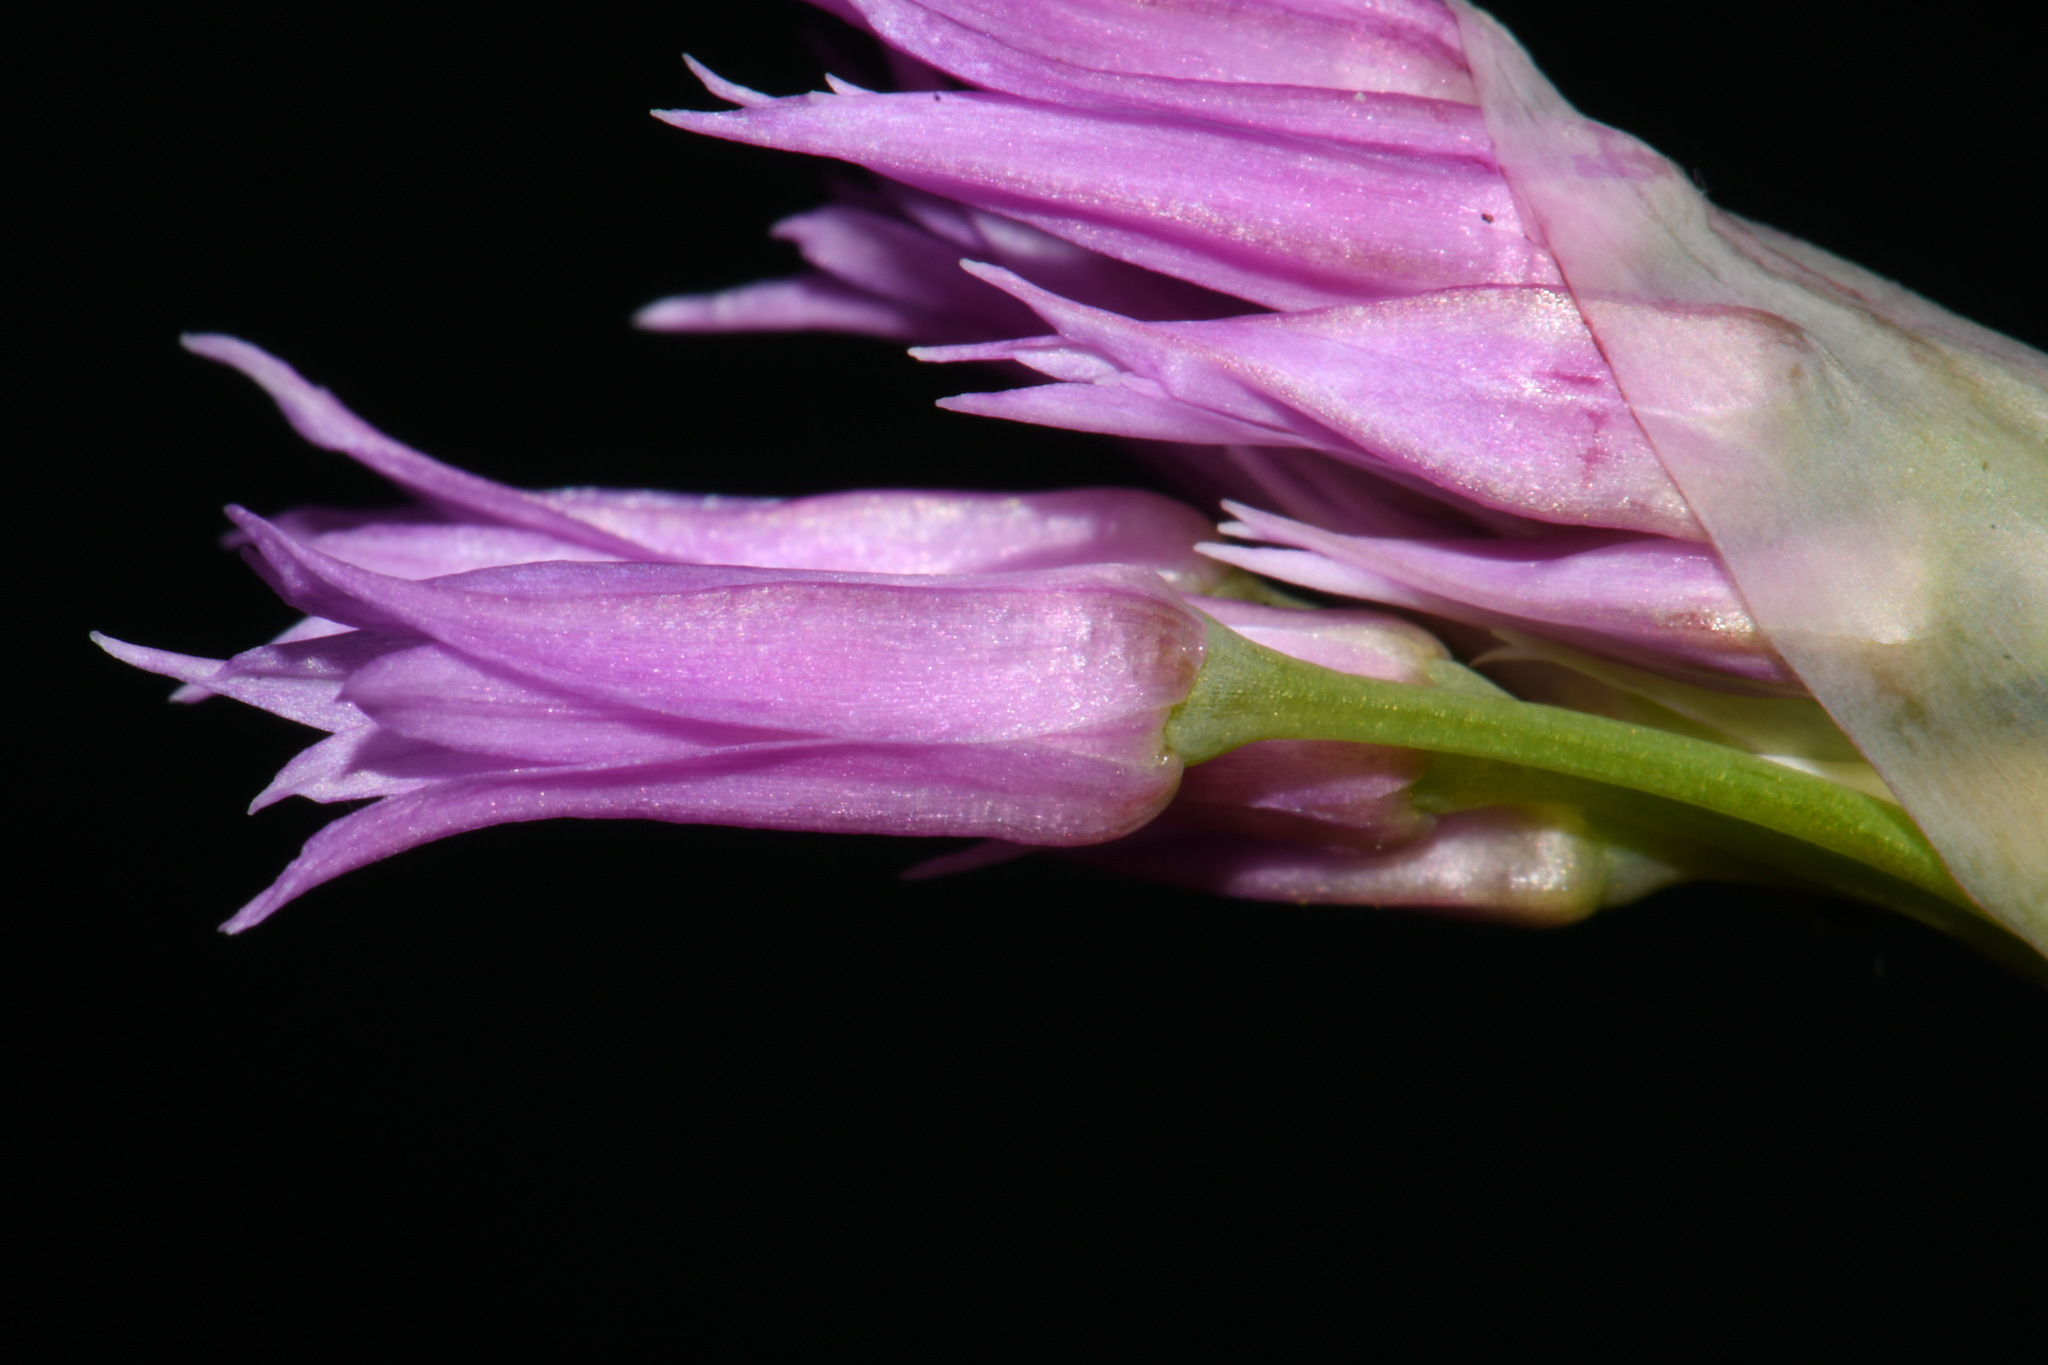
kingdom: Plantae
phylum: Tracheophyta
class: Liliopsida
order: Asparagales
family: Amaryllidaceae
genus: Allium
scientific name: Allium brevistylum
